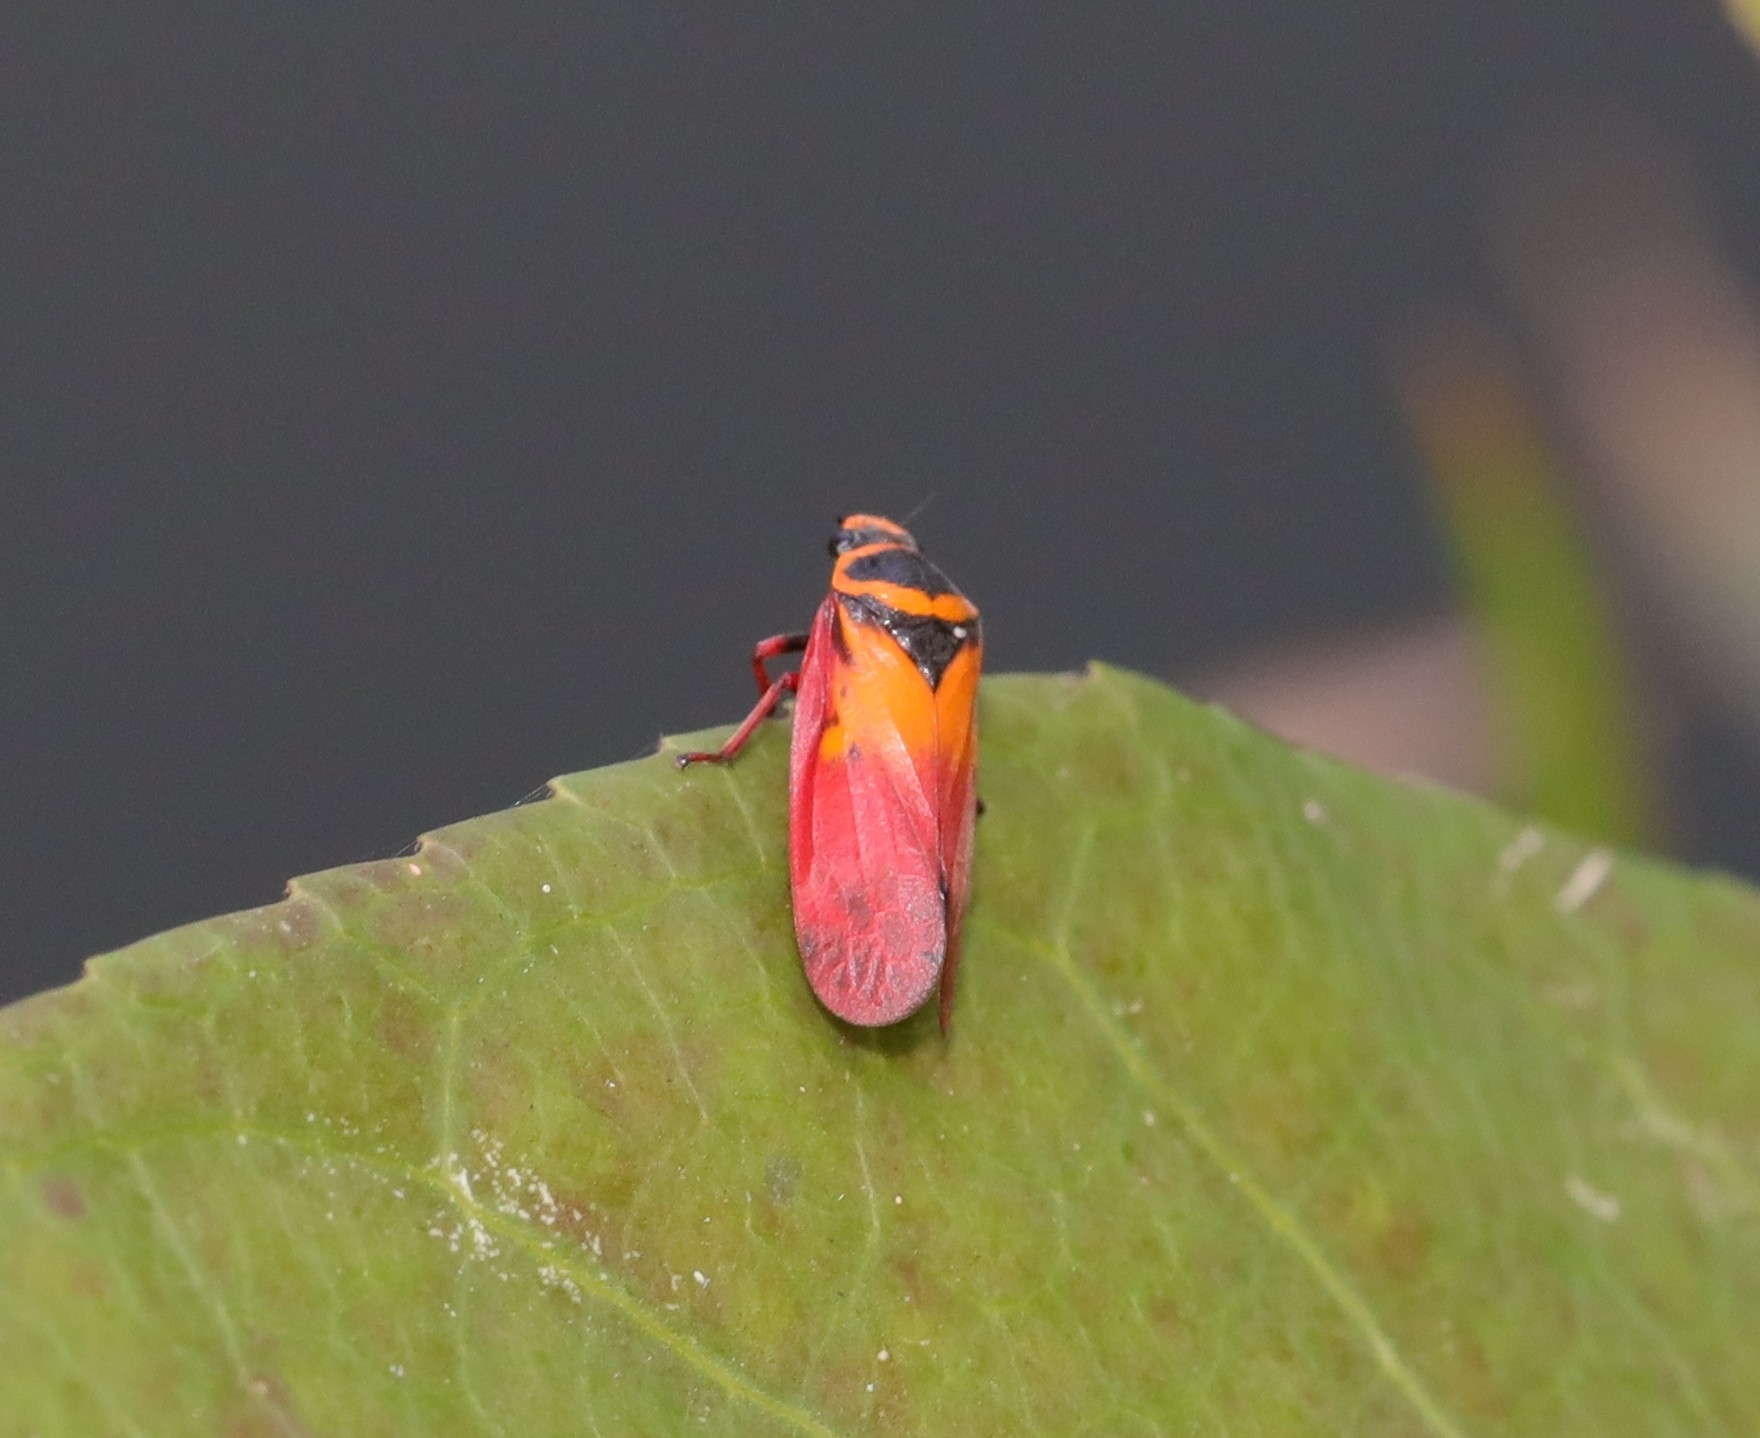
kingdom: Animalia
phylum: Arthropoda
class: Insecta
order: Hemiptera
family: Cercopidae
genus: Locris
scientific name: Locris areata
